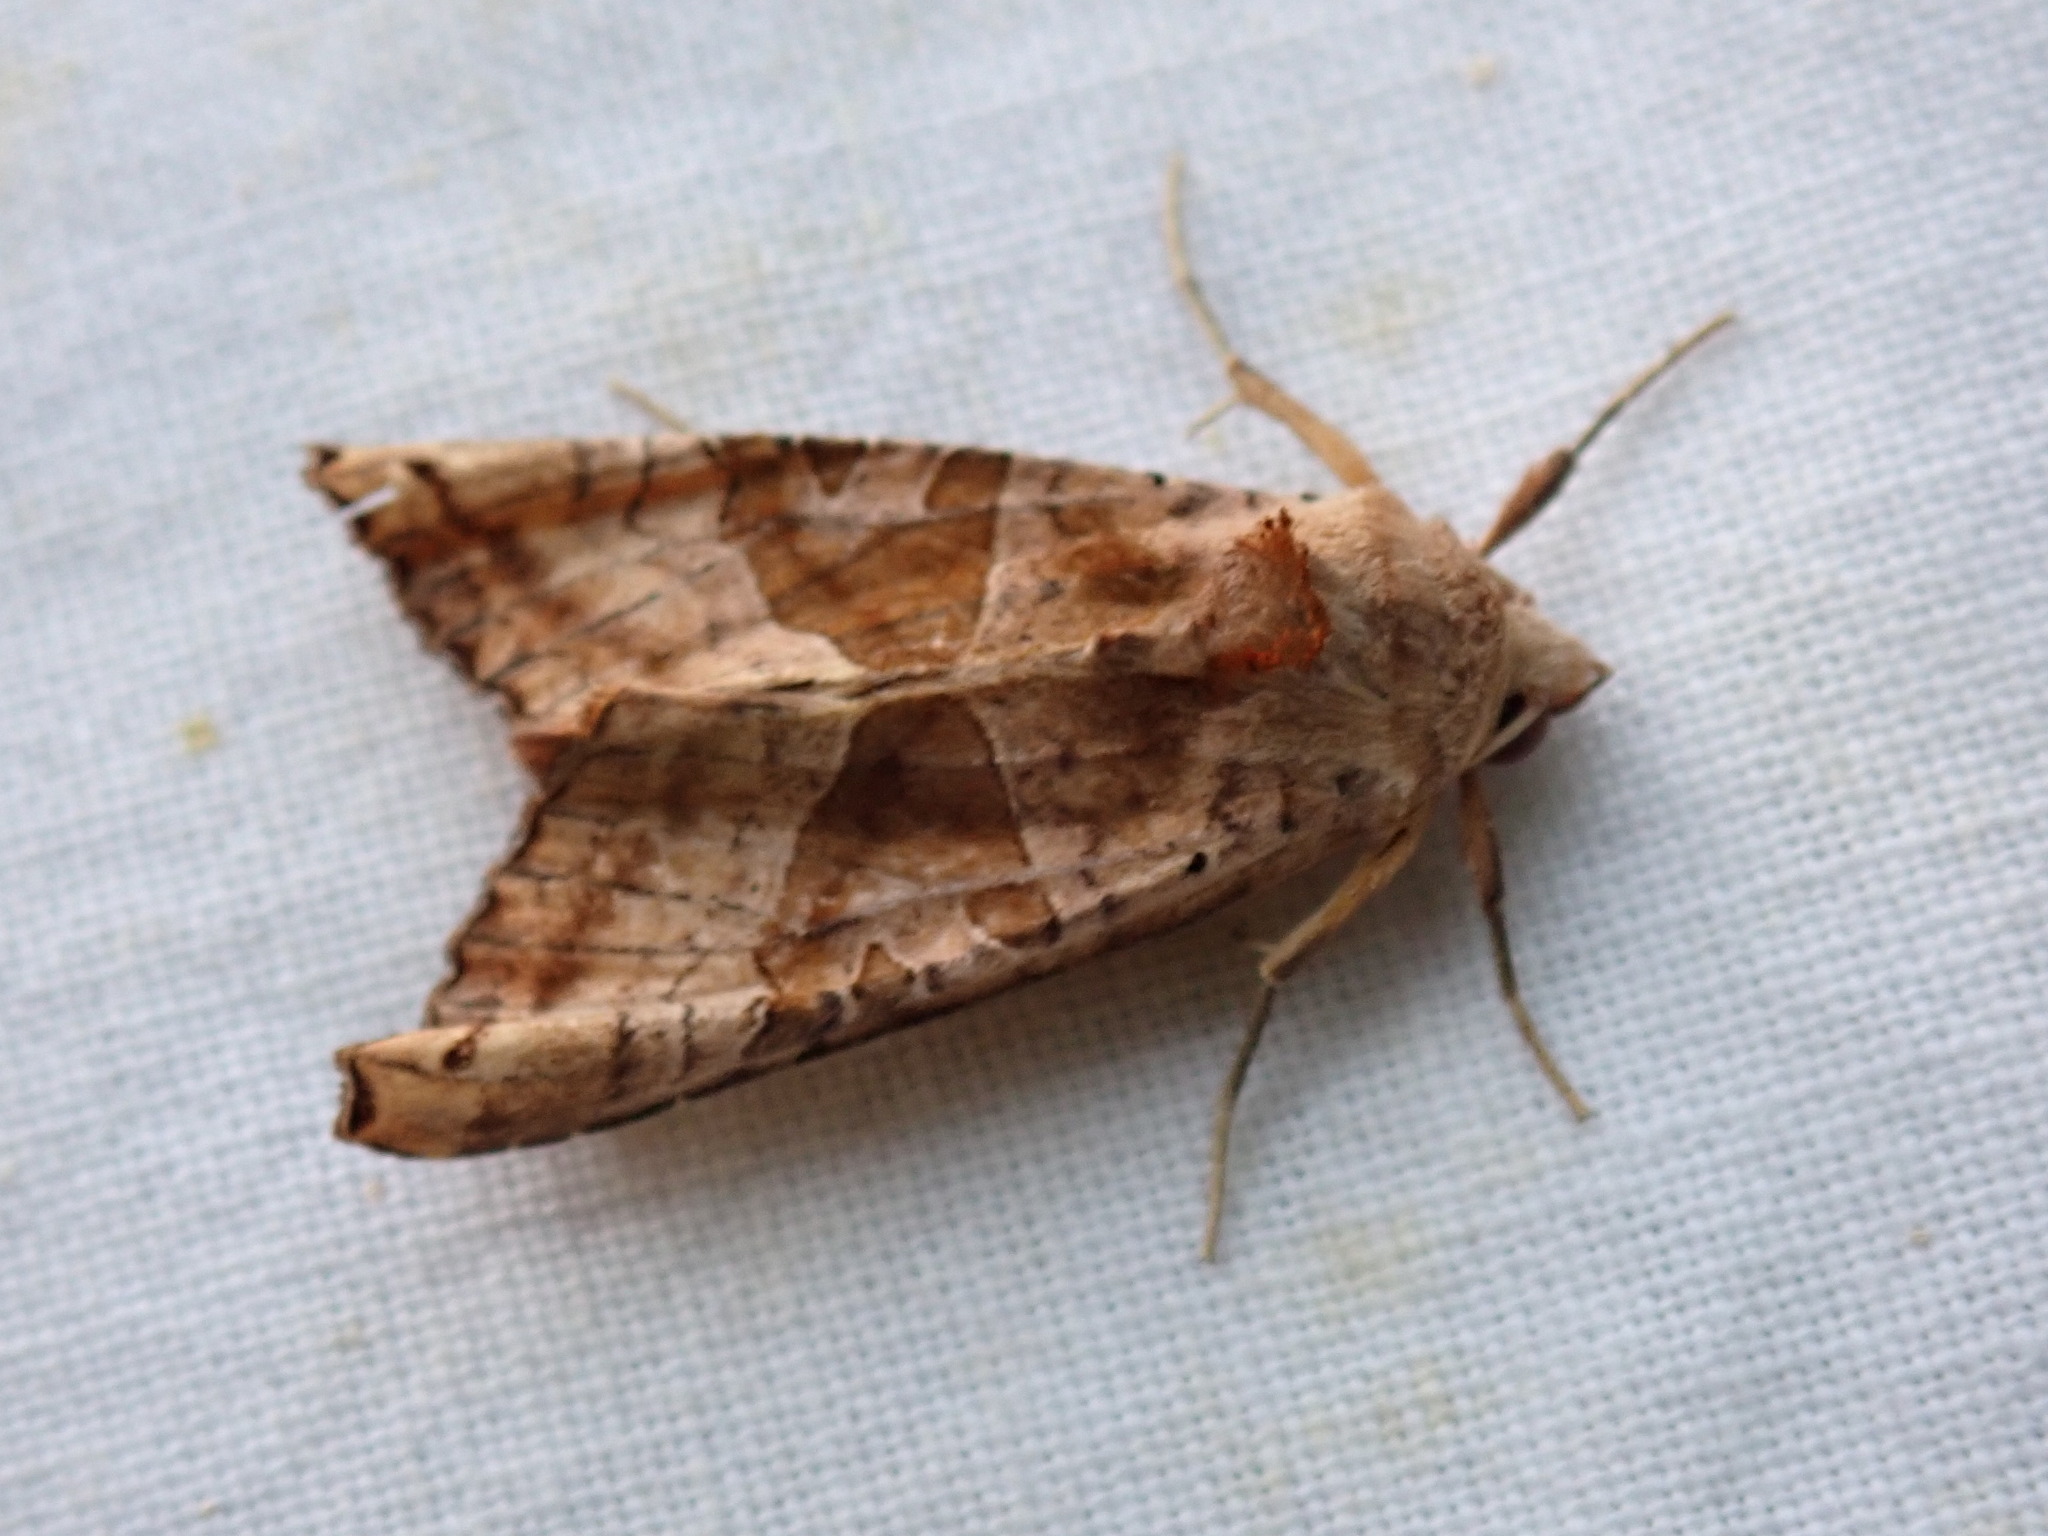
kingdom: Animalia
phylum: Arthropoda
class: Insecta
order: Lepidoptera
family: Noctuidae
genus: Phlogophora
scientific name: Phlogophora periculosa
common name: Brown angle shades
